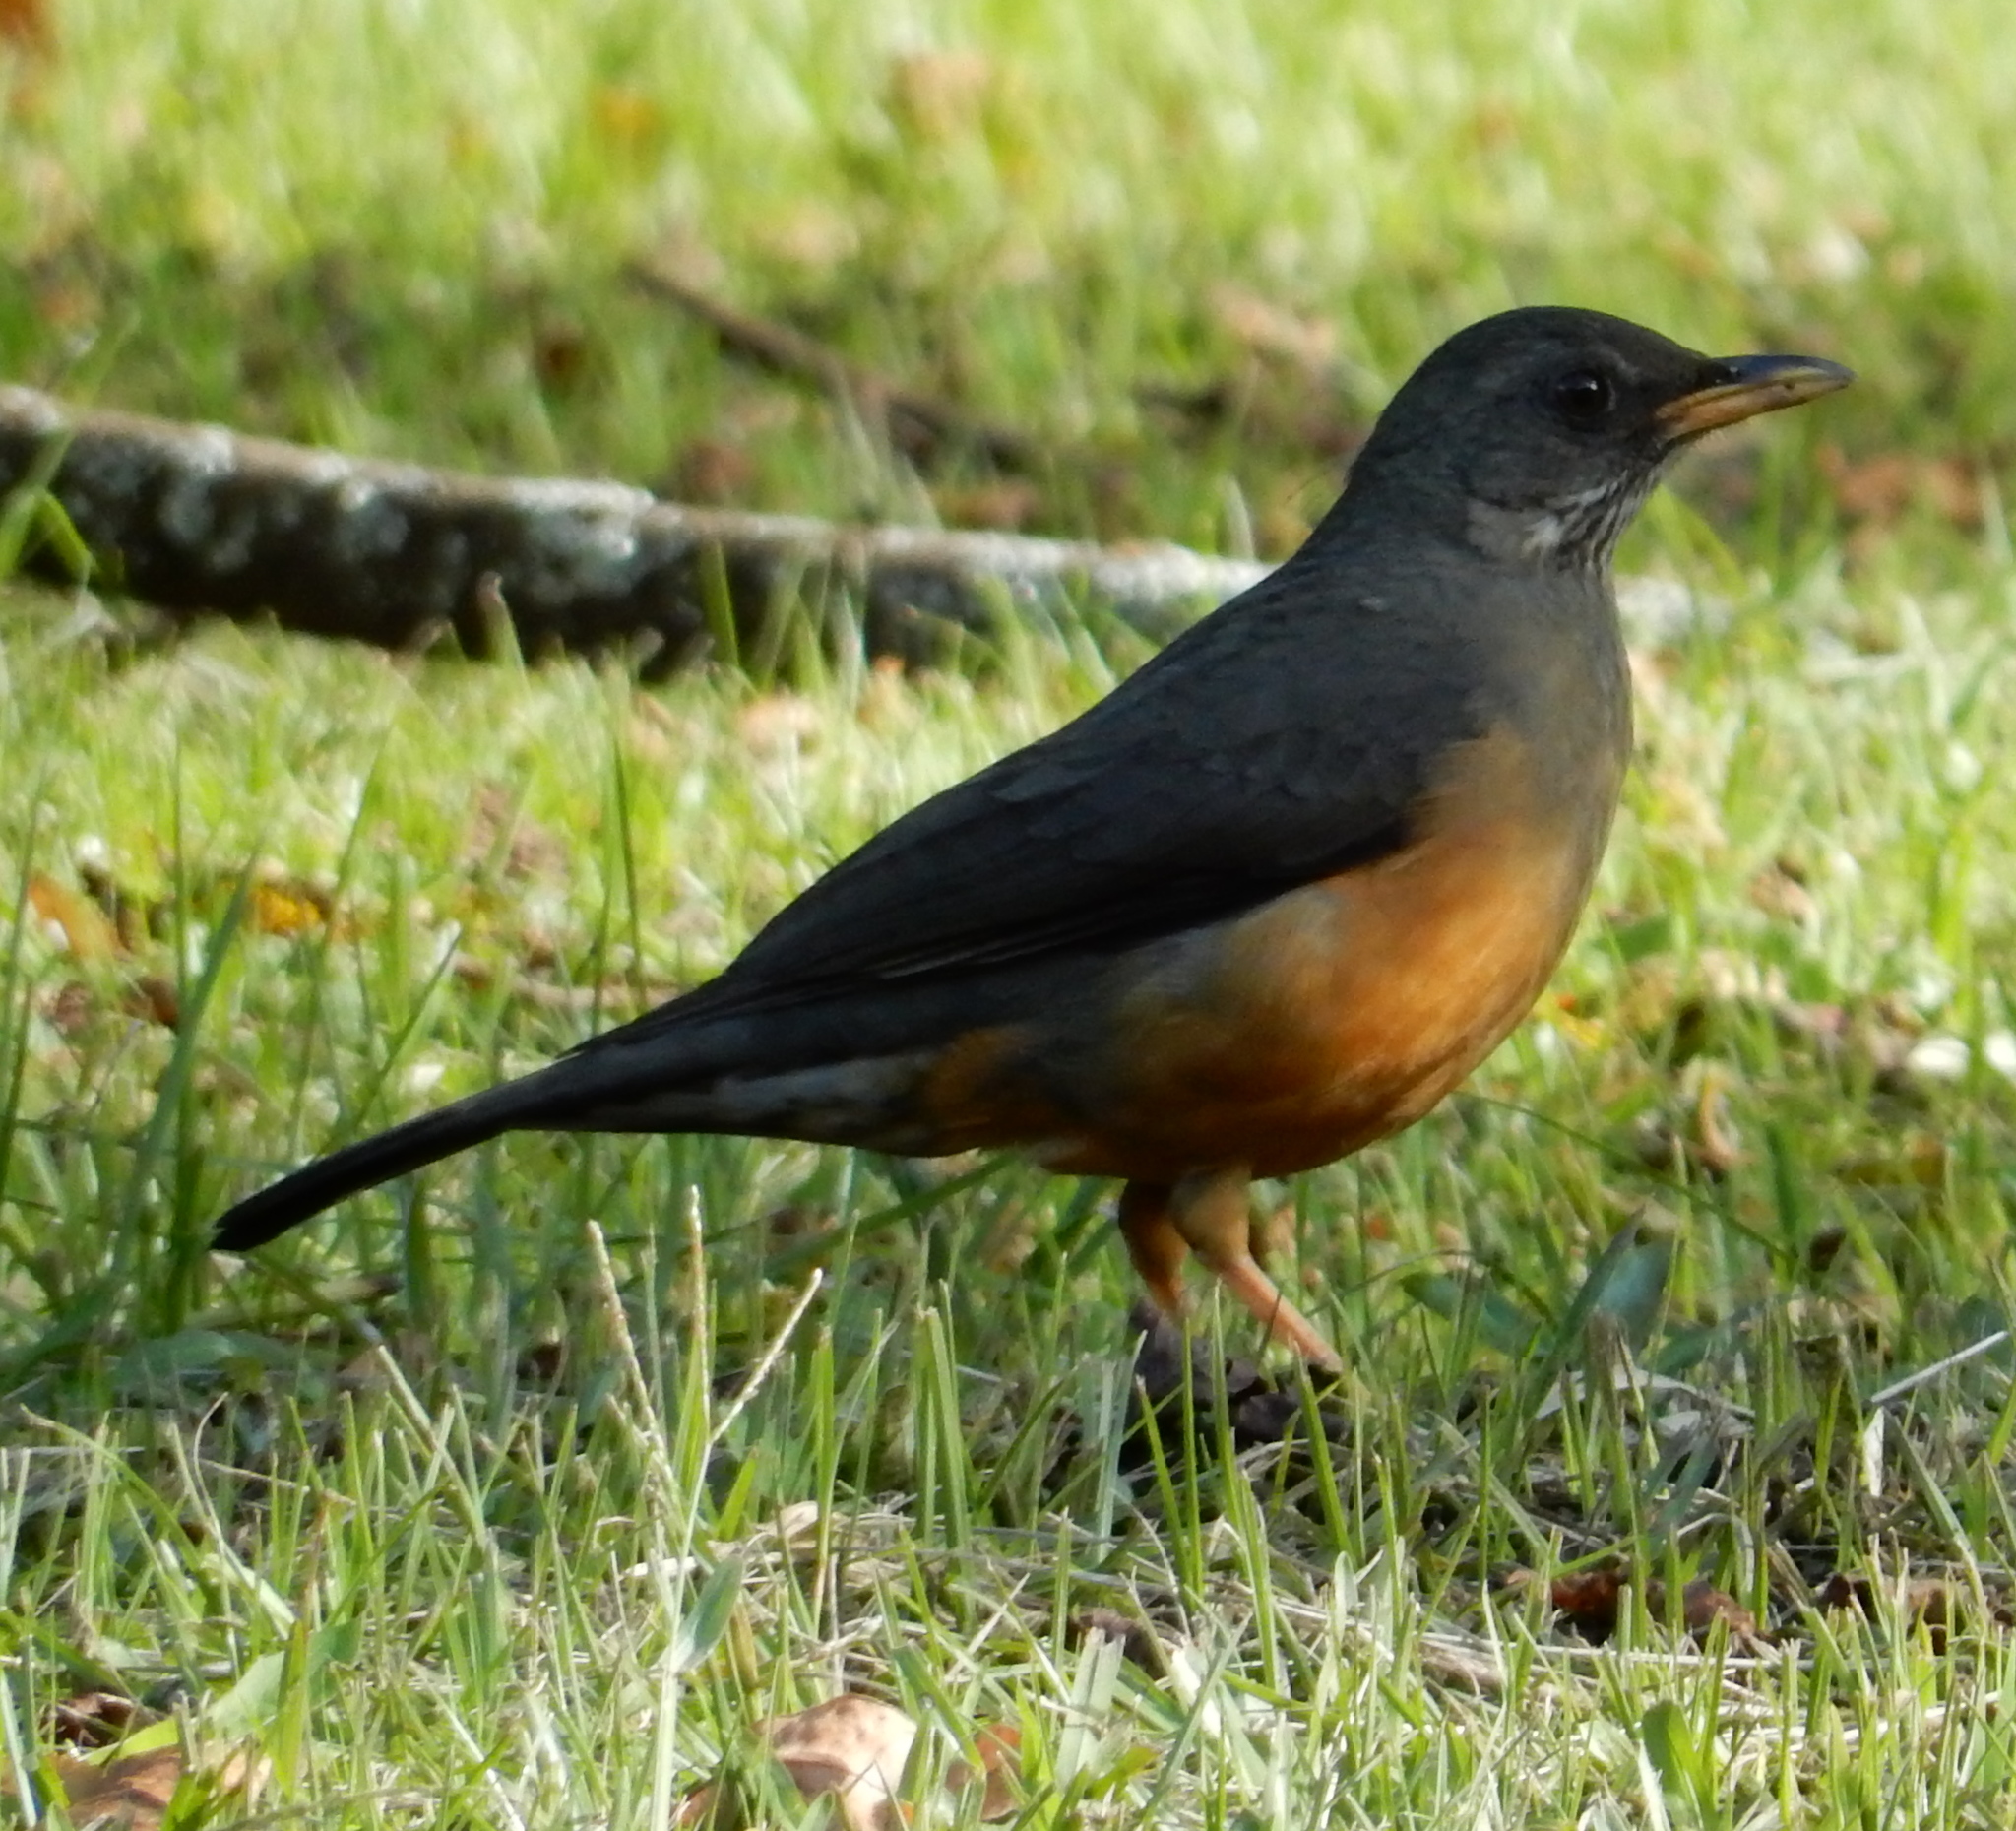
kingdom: Animalia
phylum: Chordata
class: Aves
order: Passeriformes
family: Turdidae
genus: Turdus
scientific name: Turdus olivaceus
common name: Olive thrush
